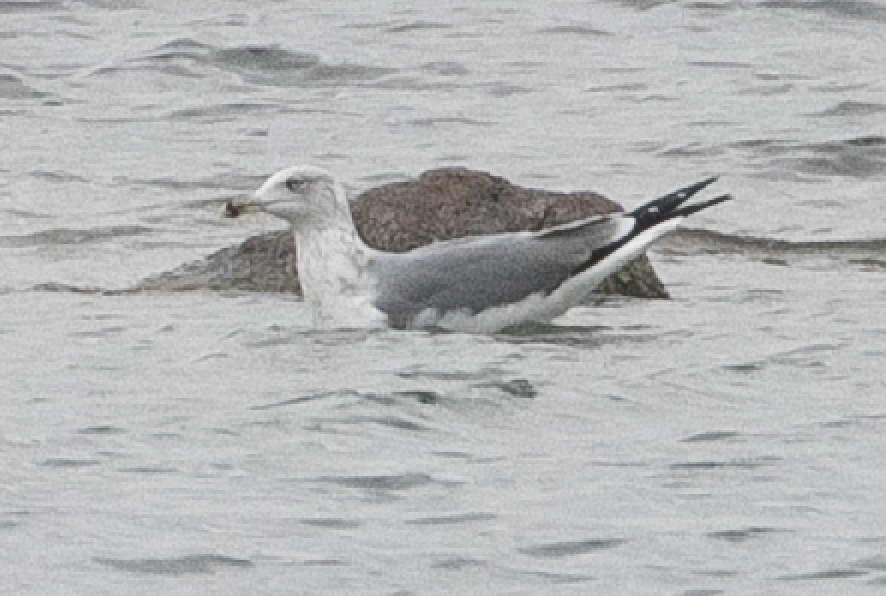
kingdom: Animalia
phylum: Chordata
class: Aves
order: Charadriiformes
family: Laridae
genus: Larus
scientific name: Larus michahellis
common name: Yellow-legged gull
